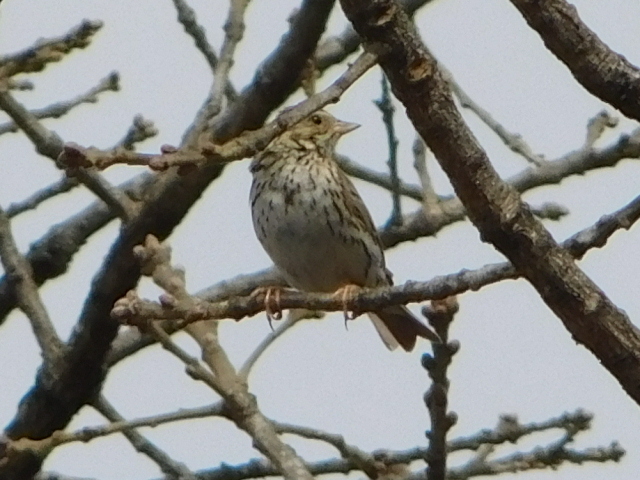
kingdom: Animalia
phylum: Chordata
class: Aves
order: Passeriformes
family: Passerellidae
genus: Passerculus
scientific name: Passerculus sandwichensis
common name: Savannah sparrow
